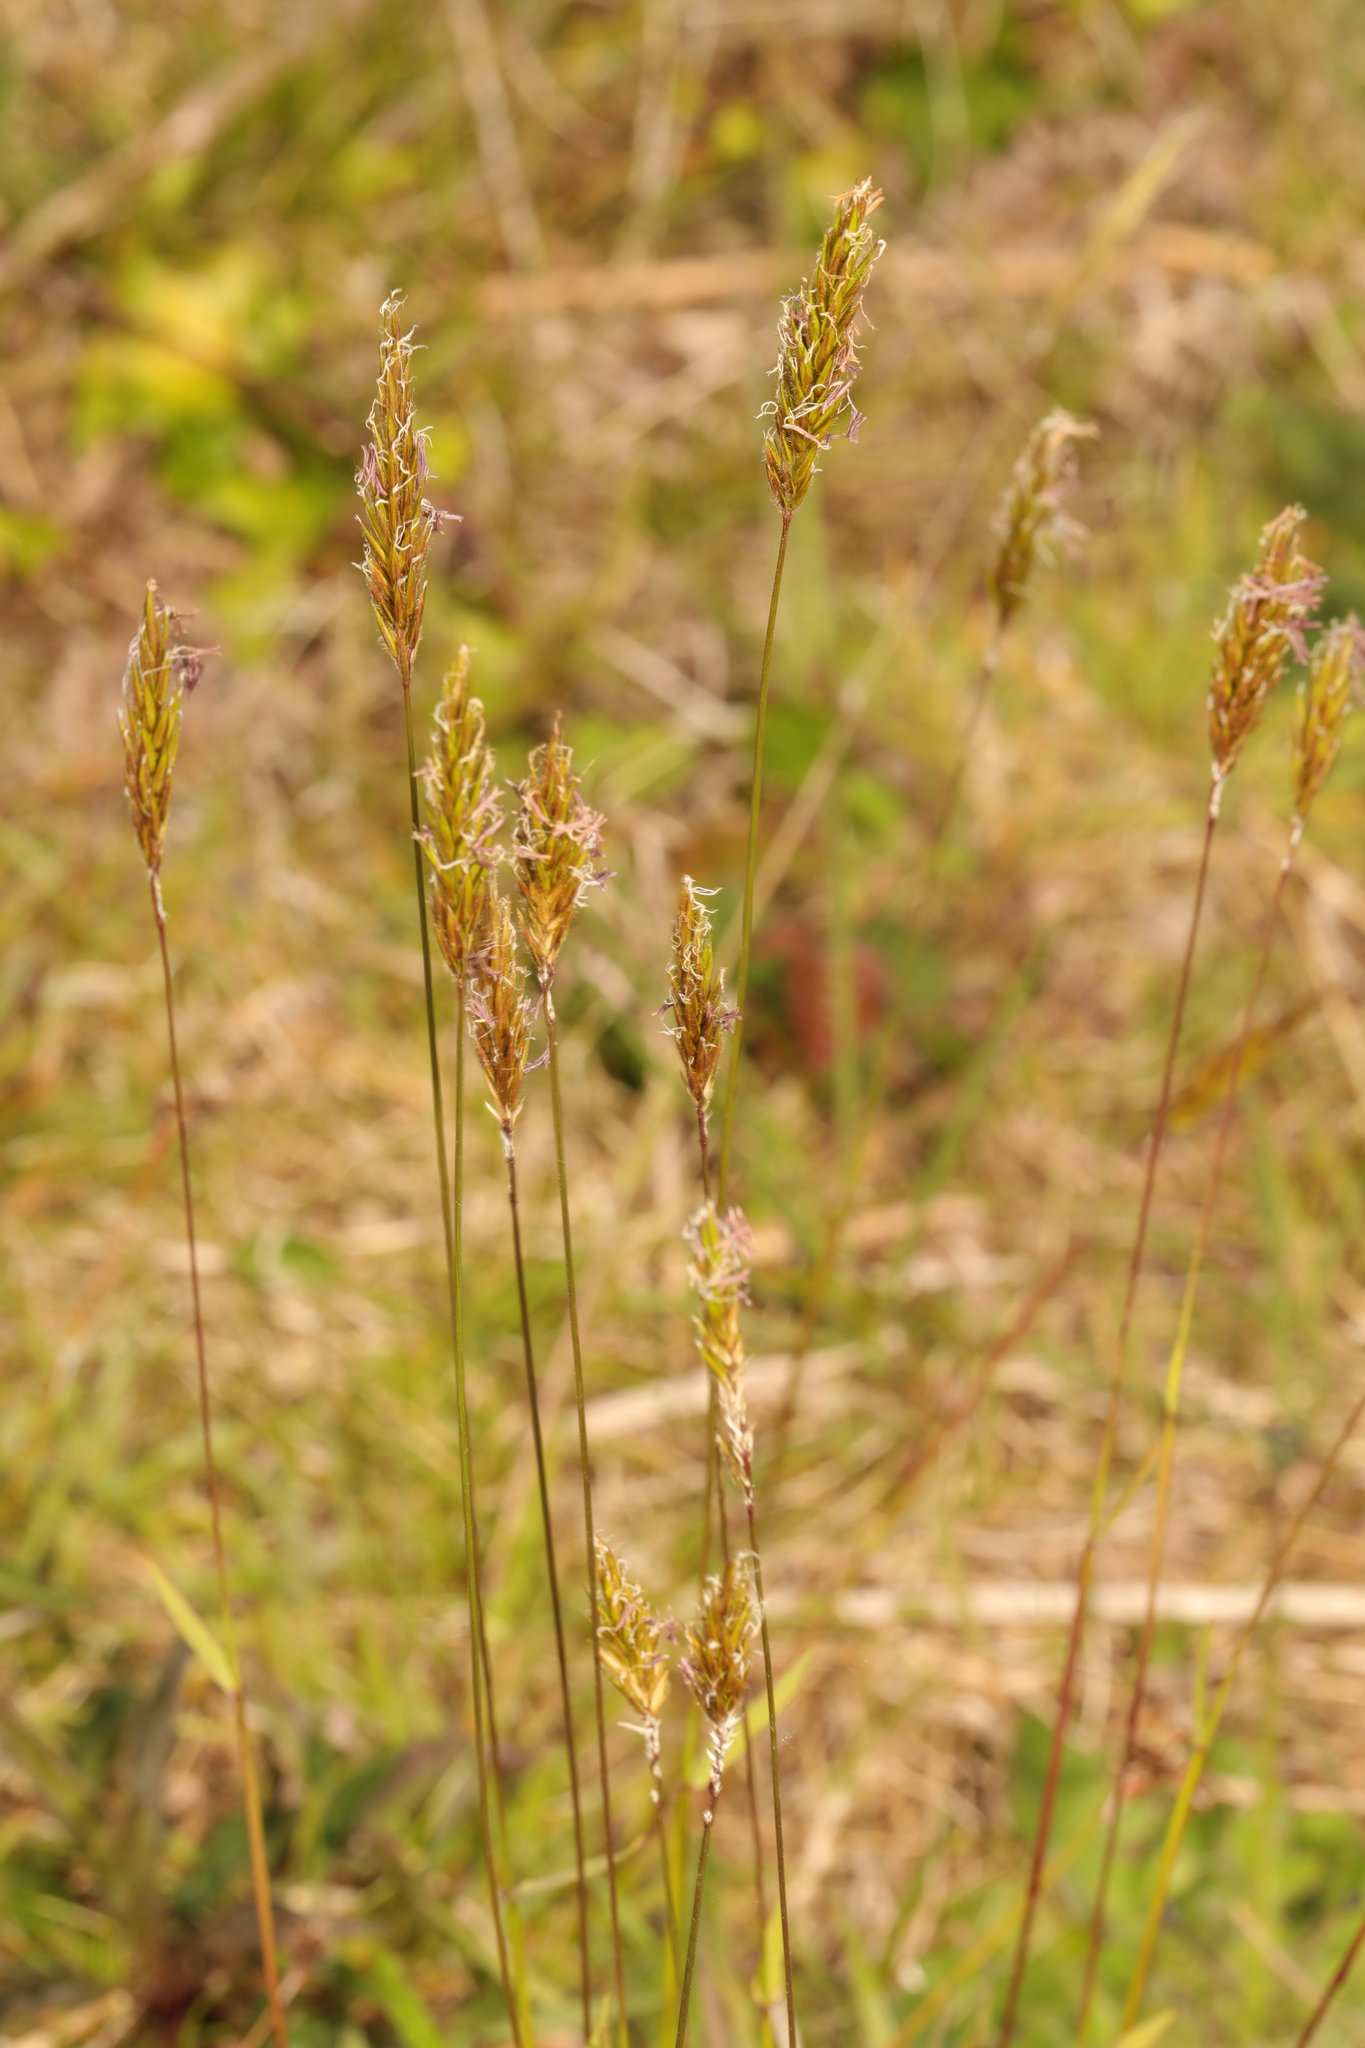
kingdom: Plantae
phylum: Tracheophyta
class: Liliopsida
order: Poales
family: Poaceae
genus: Anthoxanthum
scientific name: Anthoxanthum odoratum
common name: Sweet vernalgrass
